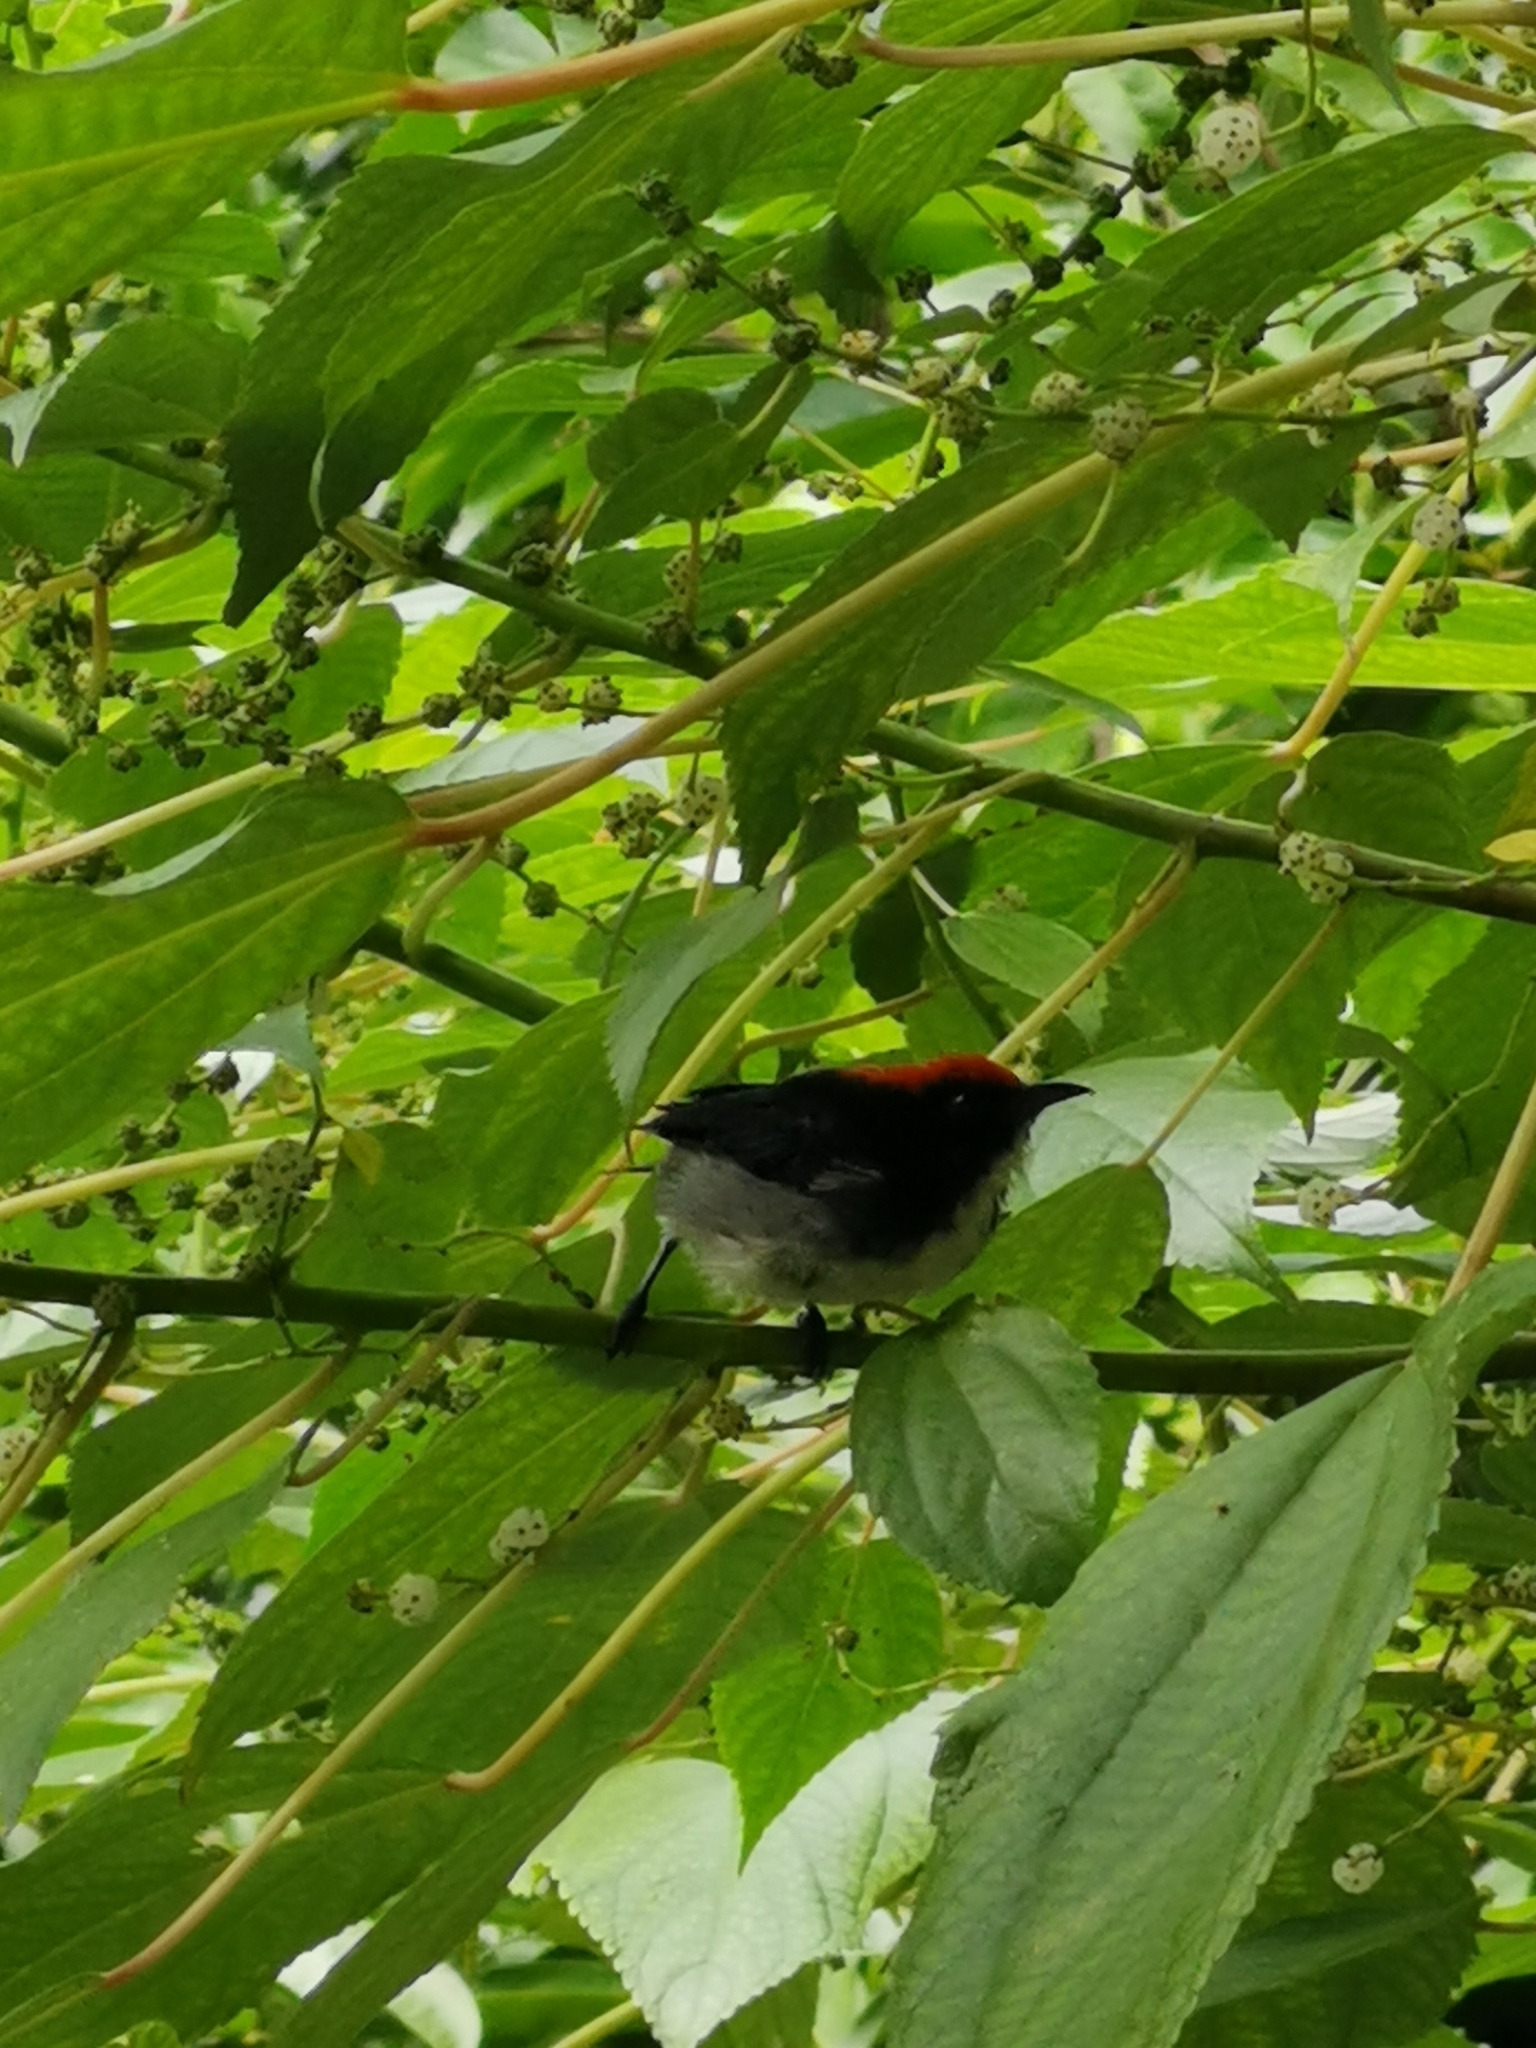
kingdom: Animalia
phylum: Chordata
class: Aves
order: Passeriformes
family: Dicaeidae
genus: Dicaeum
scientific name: Dicaeum cruentatum
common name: Scarlet-backed flowerpecker
